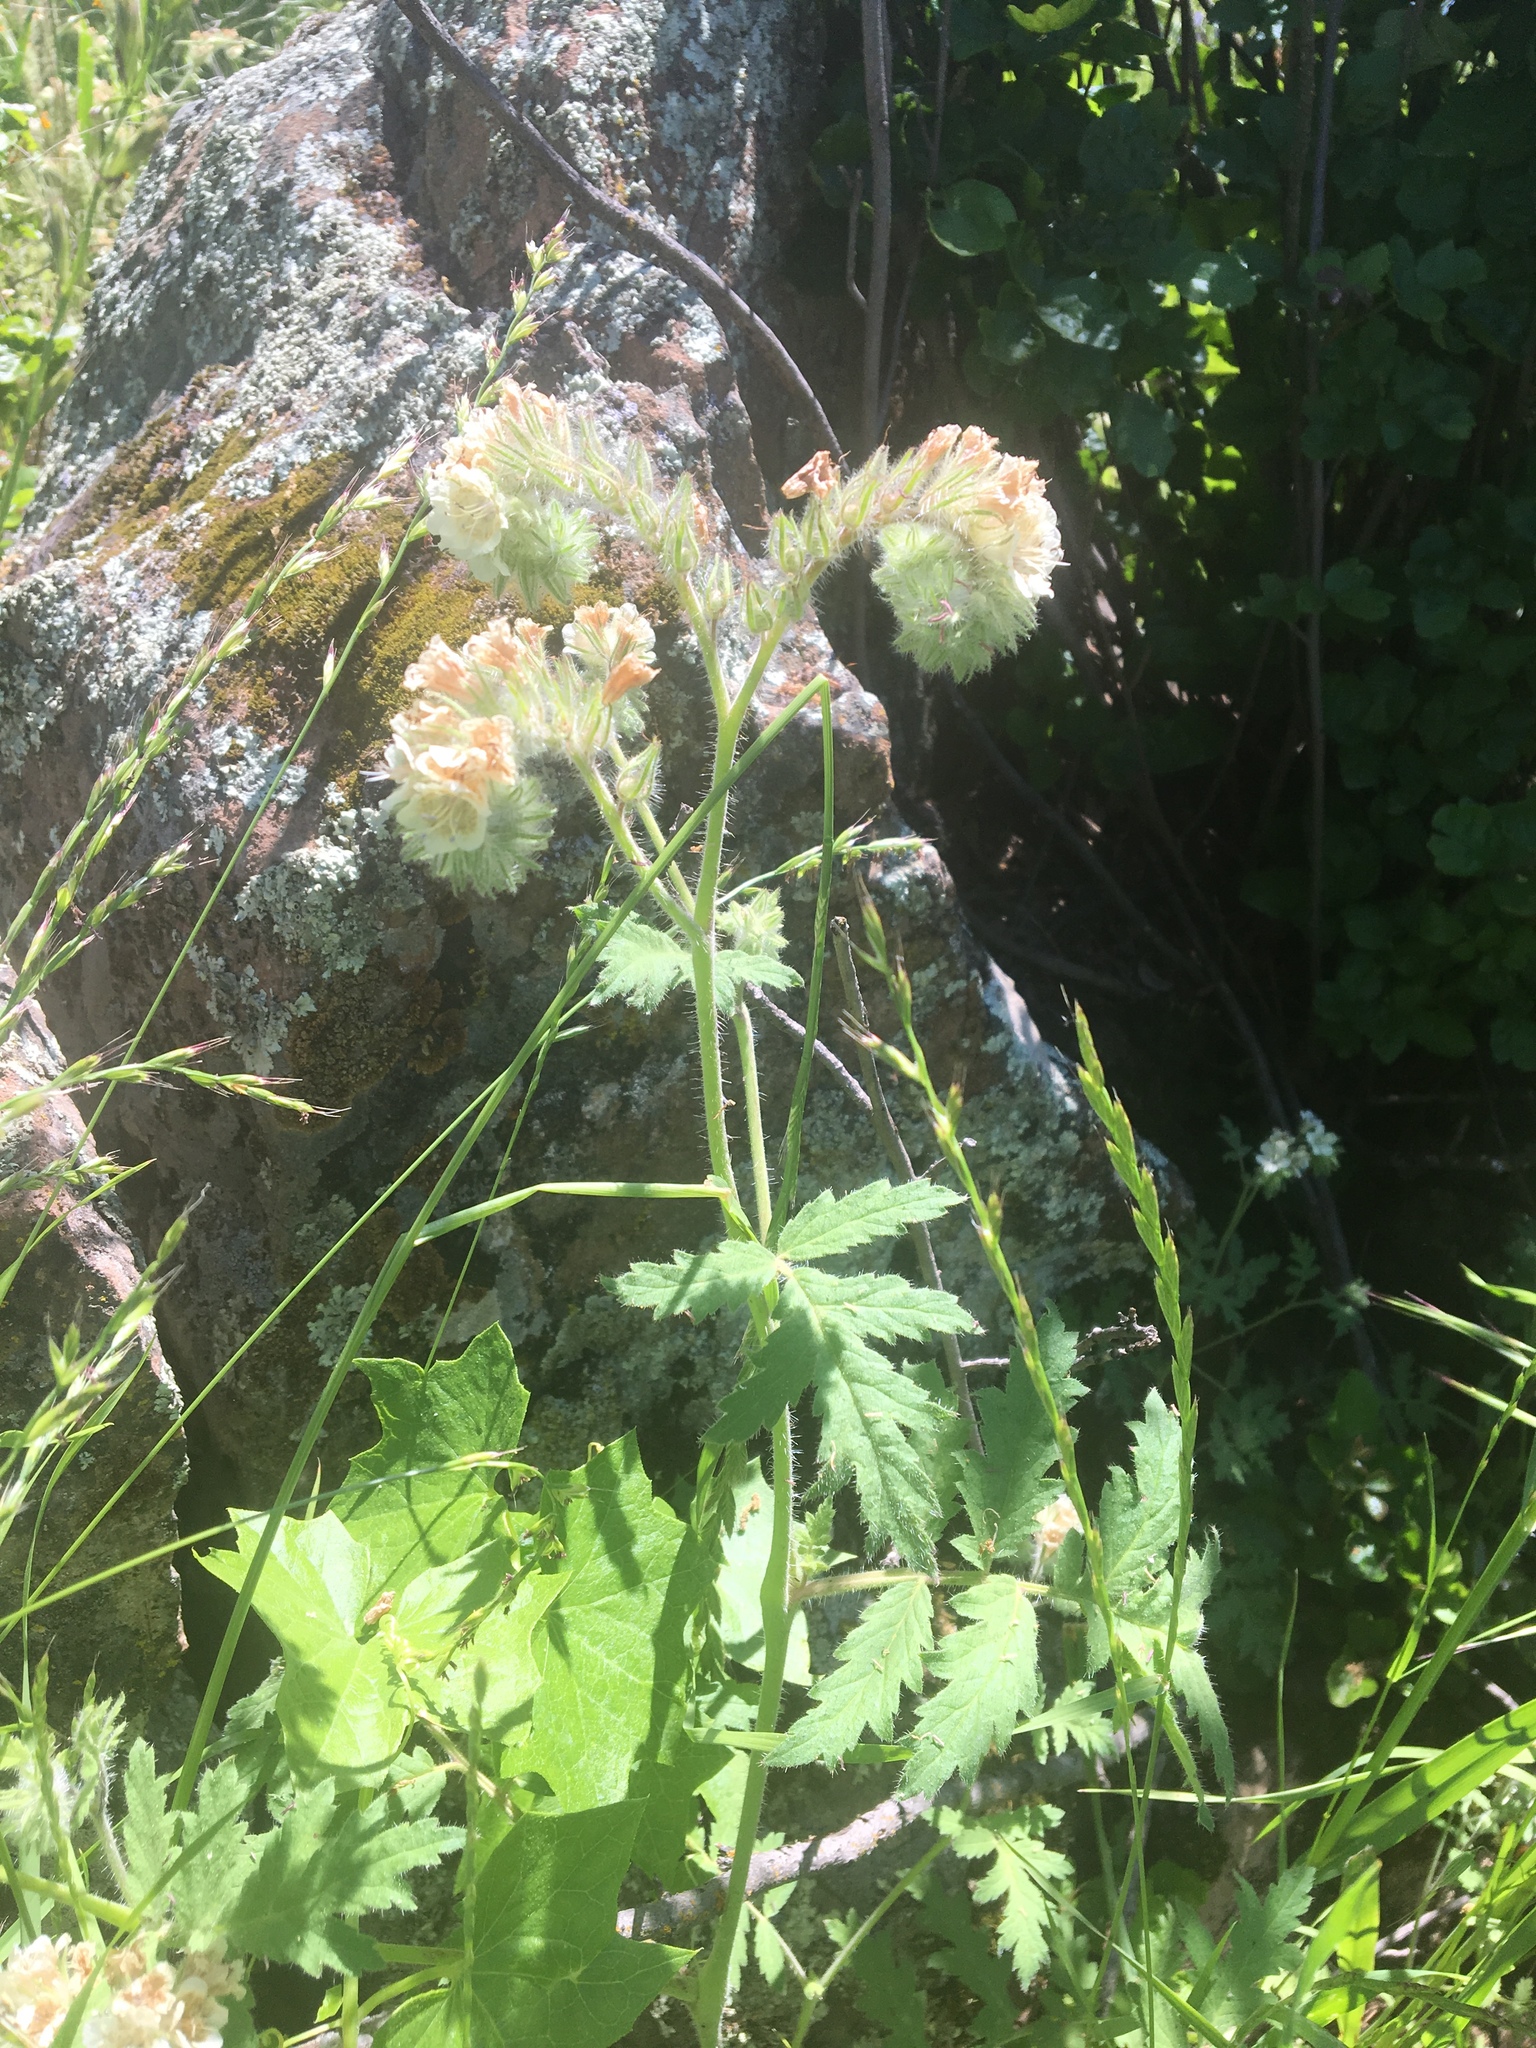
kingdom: Plantae
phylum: Tracheophyta
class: Magnoliopsida
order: Boraginales
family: Hydrophyllaceae
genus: Phacelia
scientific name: Phacelia cicutaria
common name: Caterpillar phacelia
